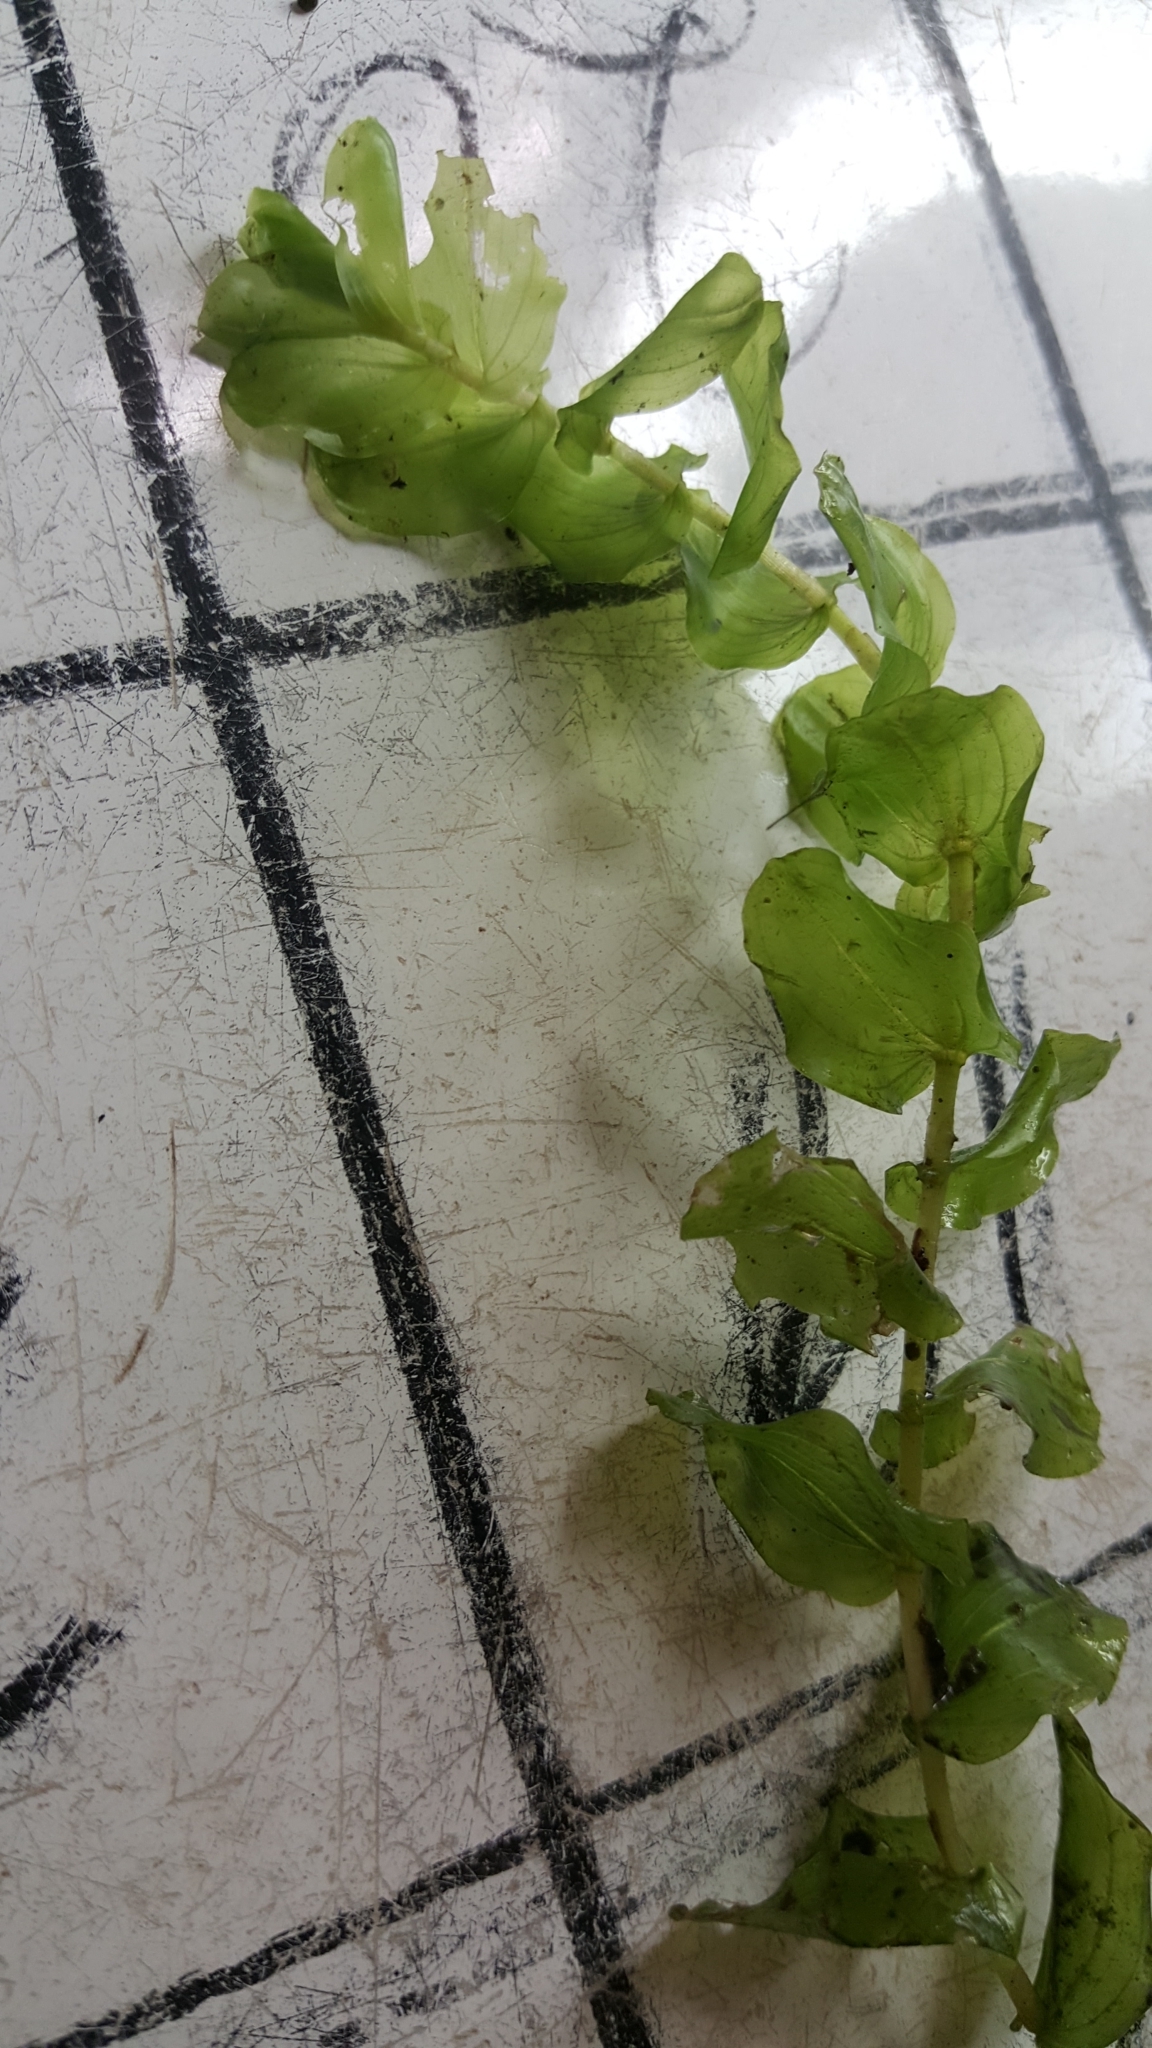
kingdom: Plantae
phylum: Tracheophyta
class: Liliopsida
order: Alismatales
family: Potamogetonaceae
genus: Potamogeton
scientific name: Potamogeton perfoliatus
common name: Perfoliate pondweed
